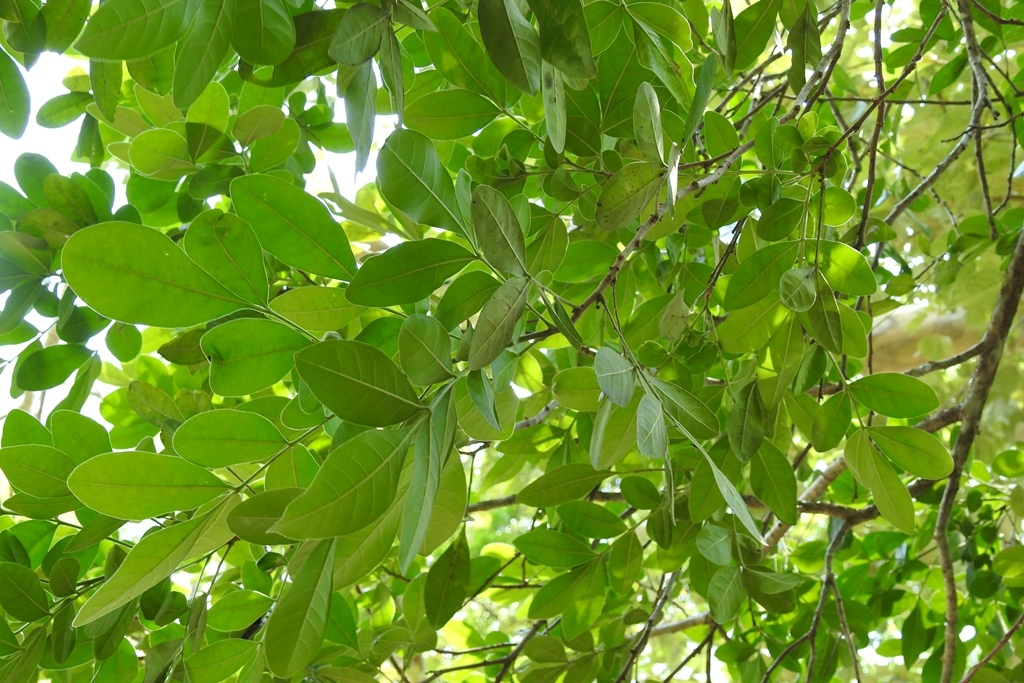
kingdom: Plantae
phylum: Tracheophyta
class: Magnoliopsida
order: Sapindales
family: Meliaceae
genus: Trichilia
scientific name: Trichilia havanensis
